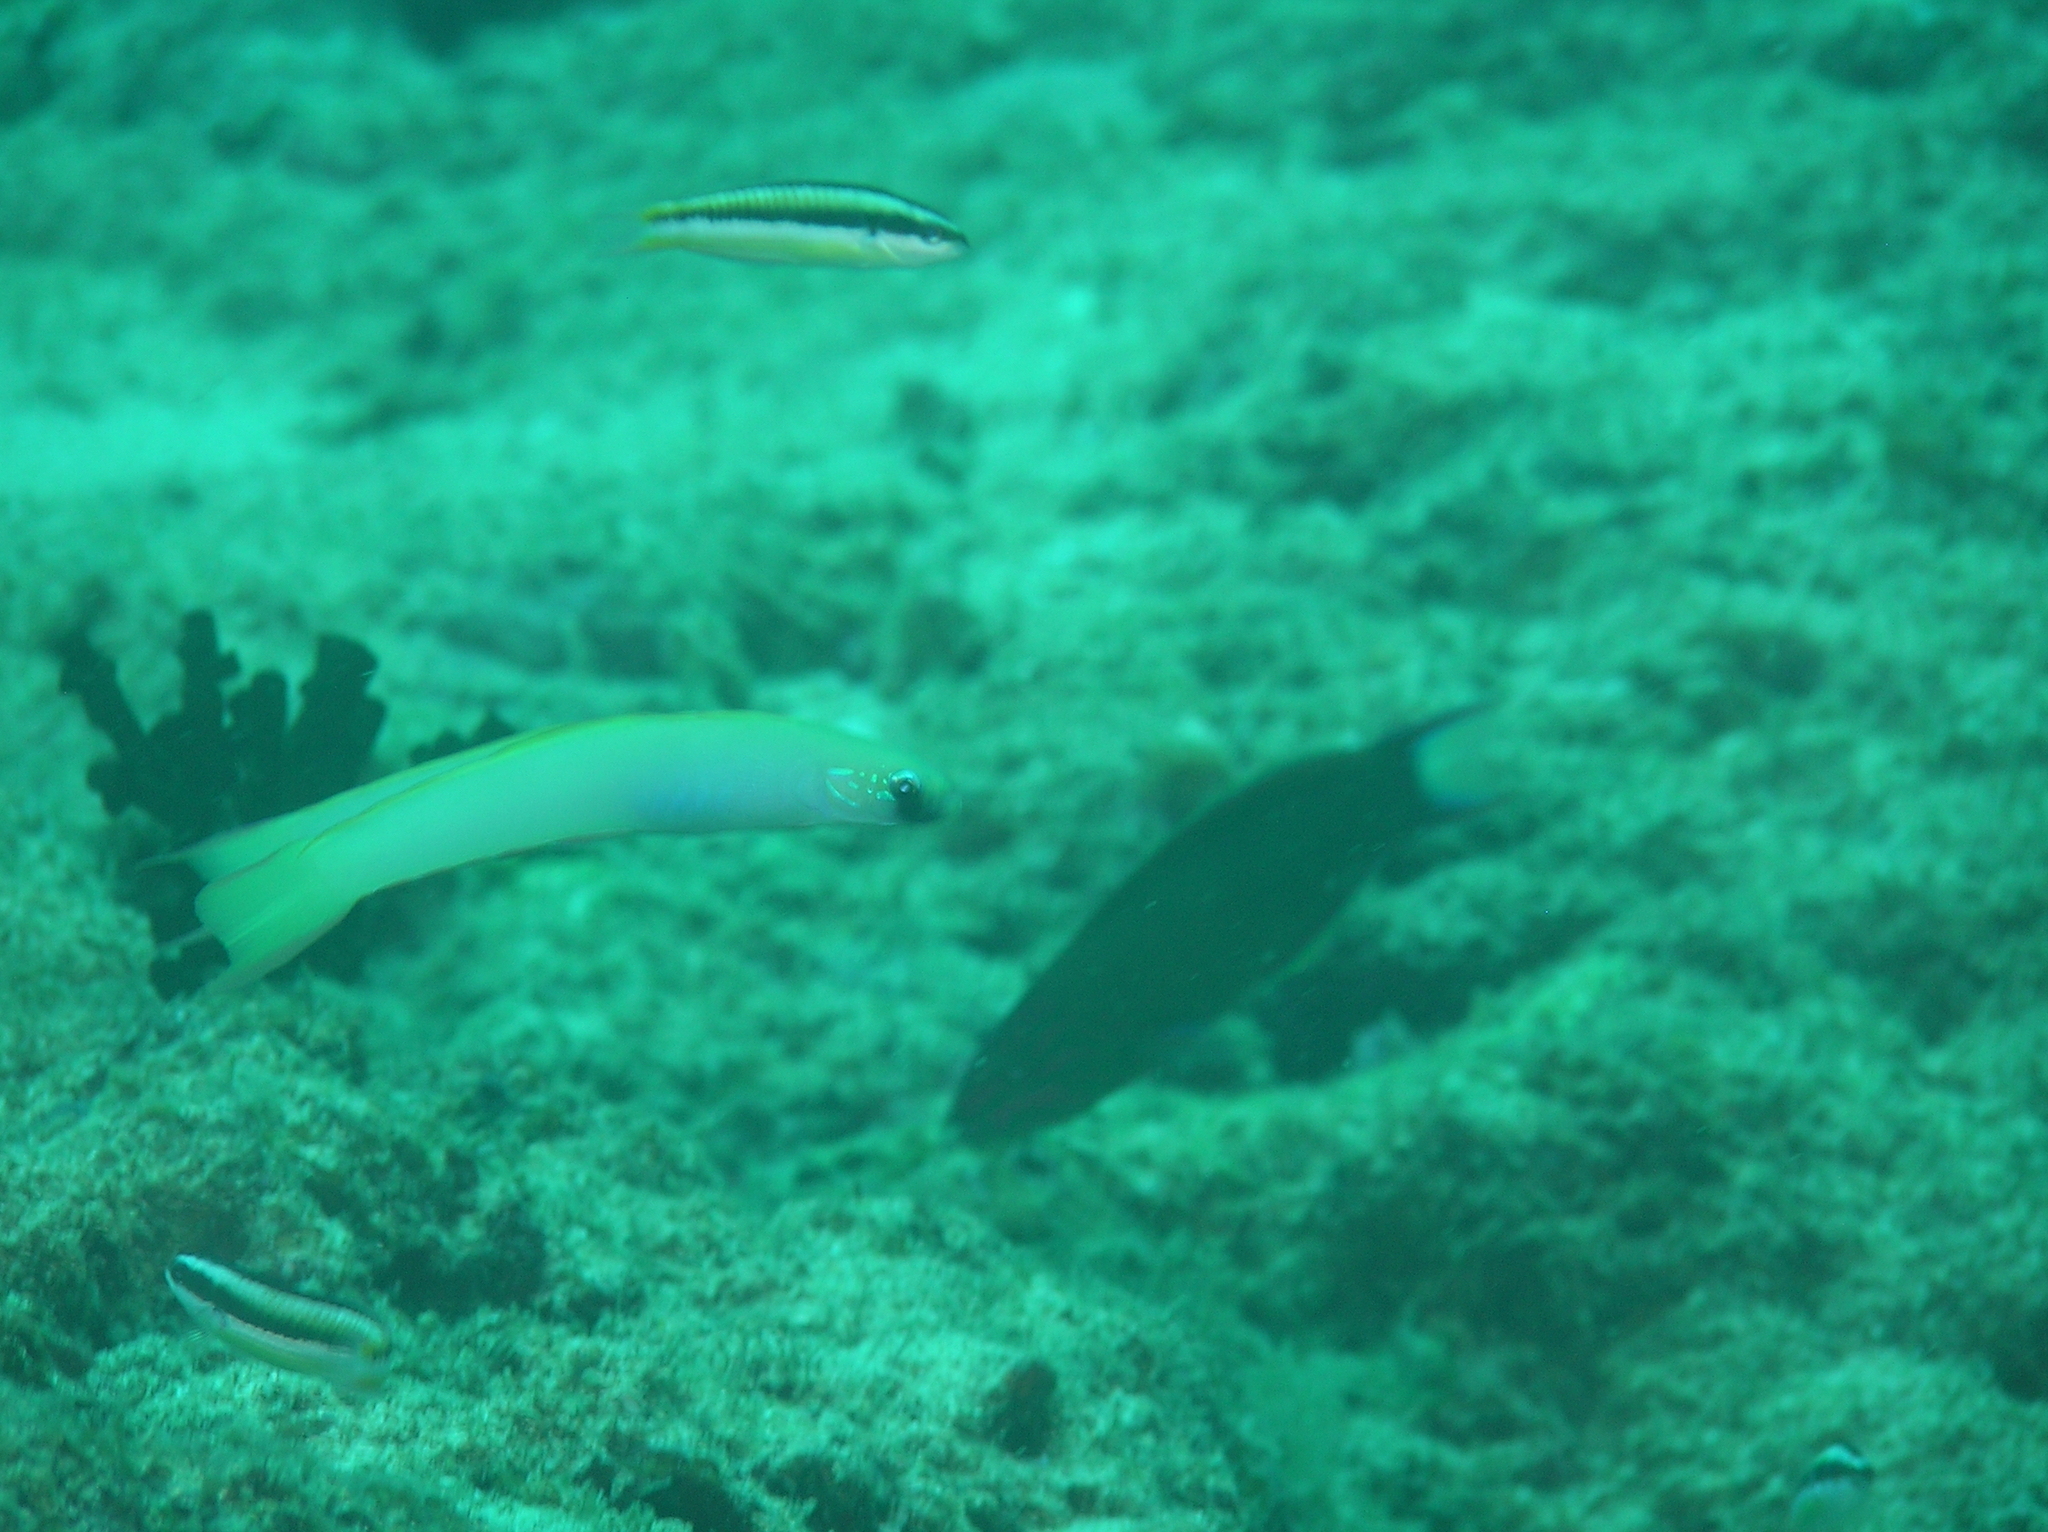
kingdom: Animalia
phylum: Chordata
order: Perciformes
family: Microdesmidae
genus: Ptereleotris
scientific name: Ptereleotris monoptera
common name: Lyre-tail dart-goby
